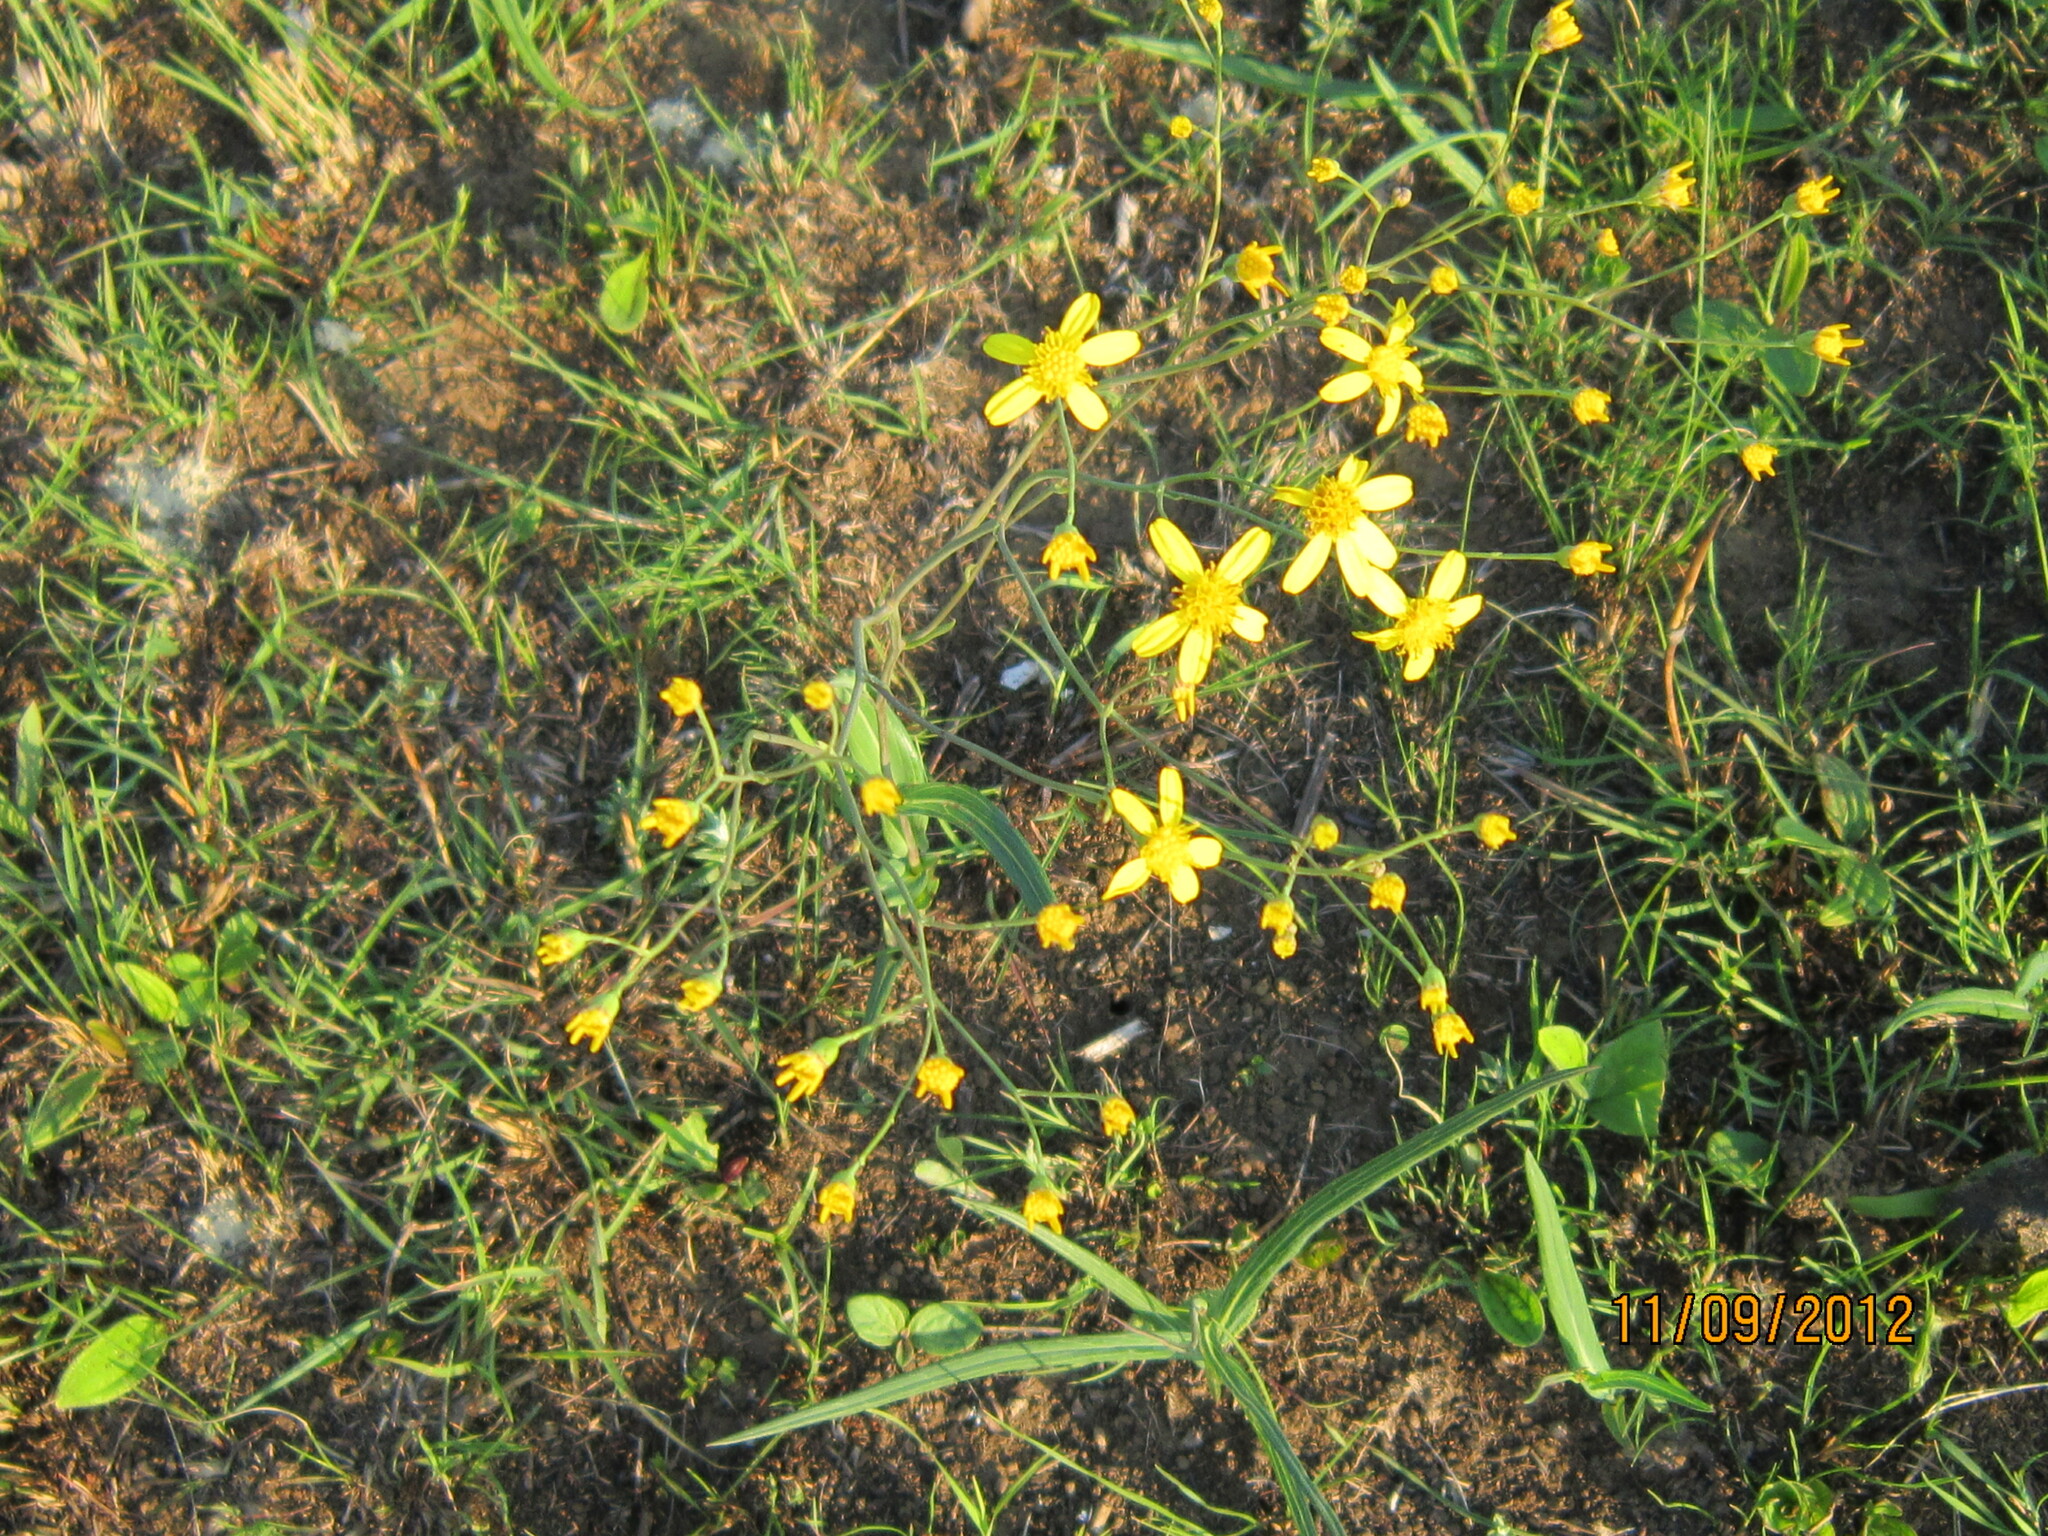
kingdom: Plantae
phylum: Tracheophyta
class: Magnoliopsida
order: Asterales
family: Asteraceae
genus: Senecio
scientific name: Senecio bupleuroides
